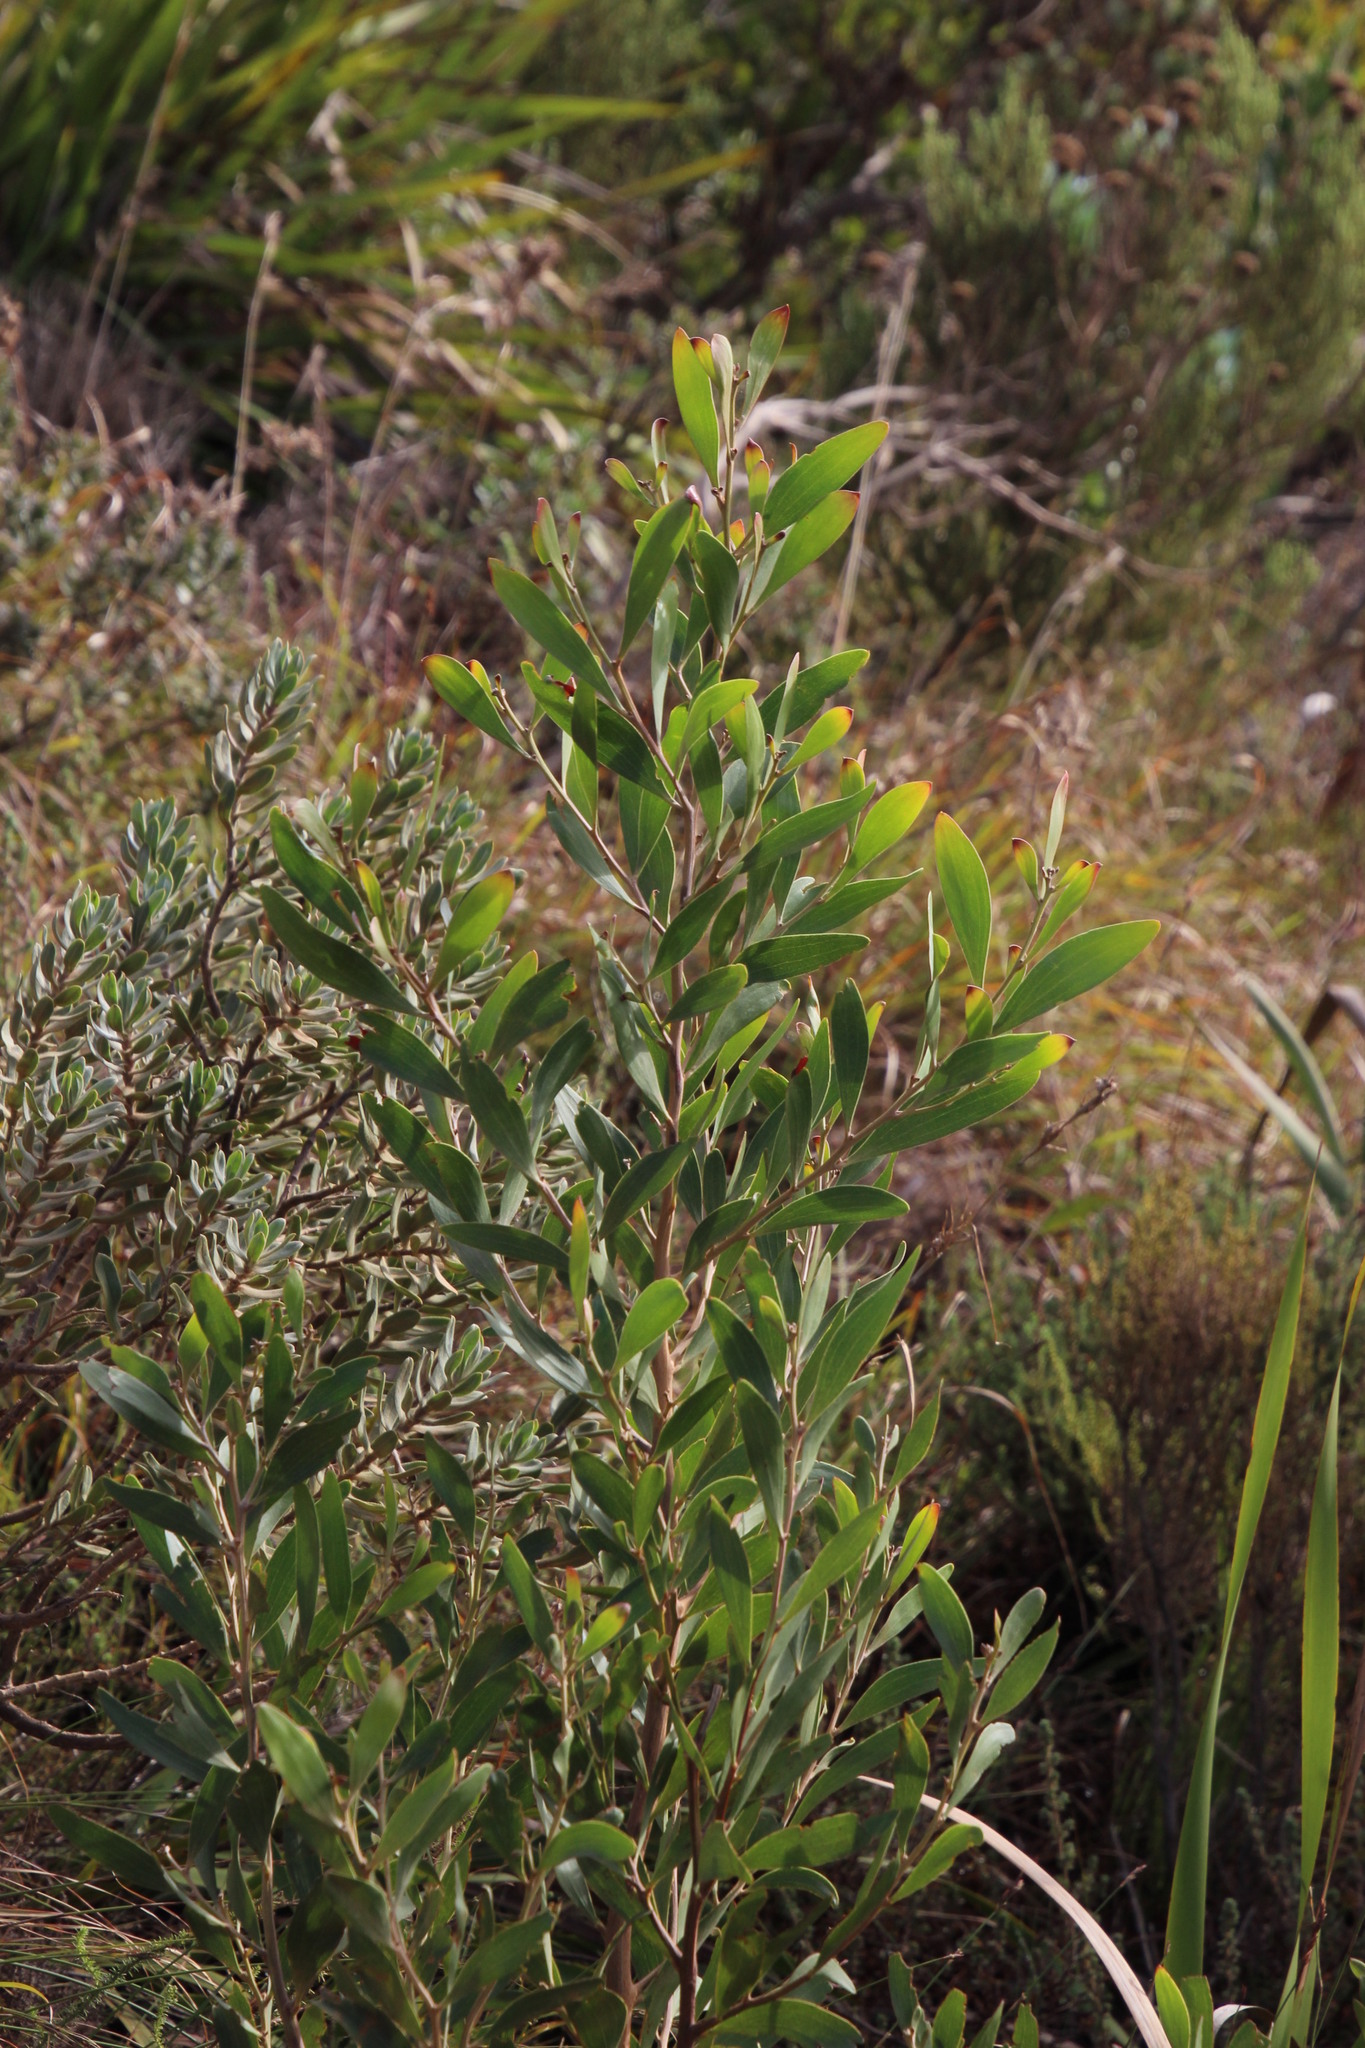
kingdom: Plantae
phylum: Tracheophyta
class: Magnoliopsida
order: Fabales
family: Fabaceae
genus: Acacia
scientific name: Acacia melanoxylon
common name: Blackwood
